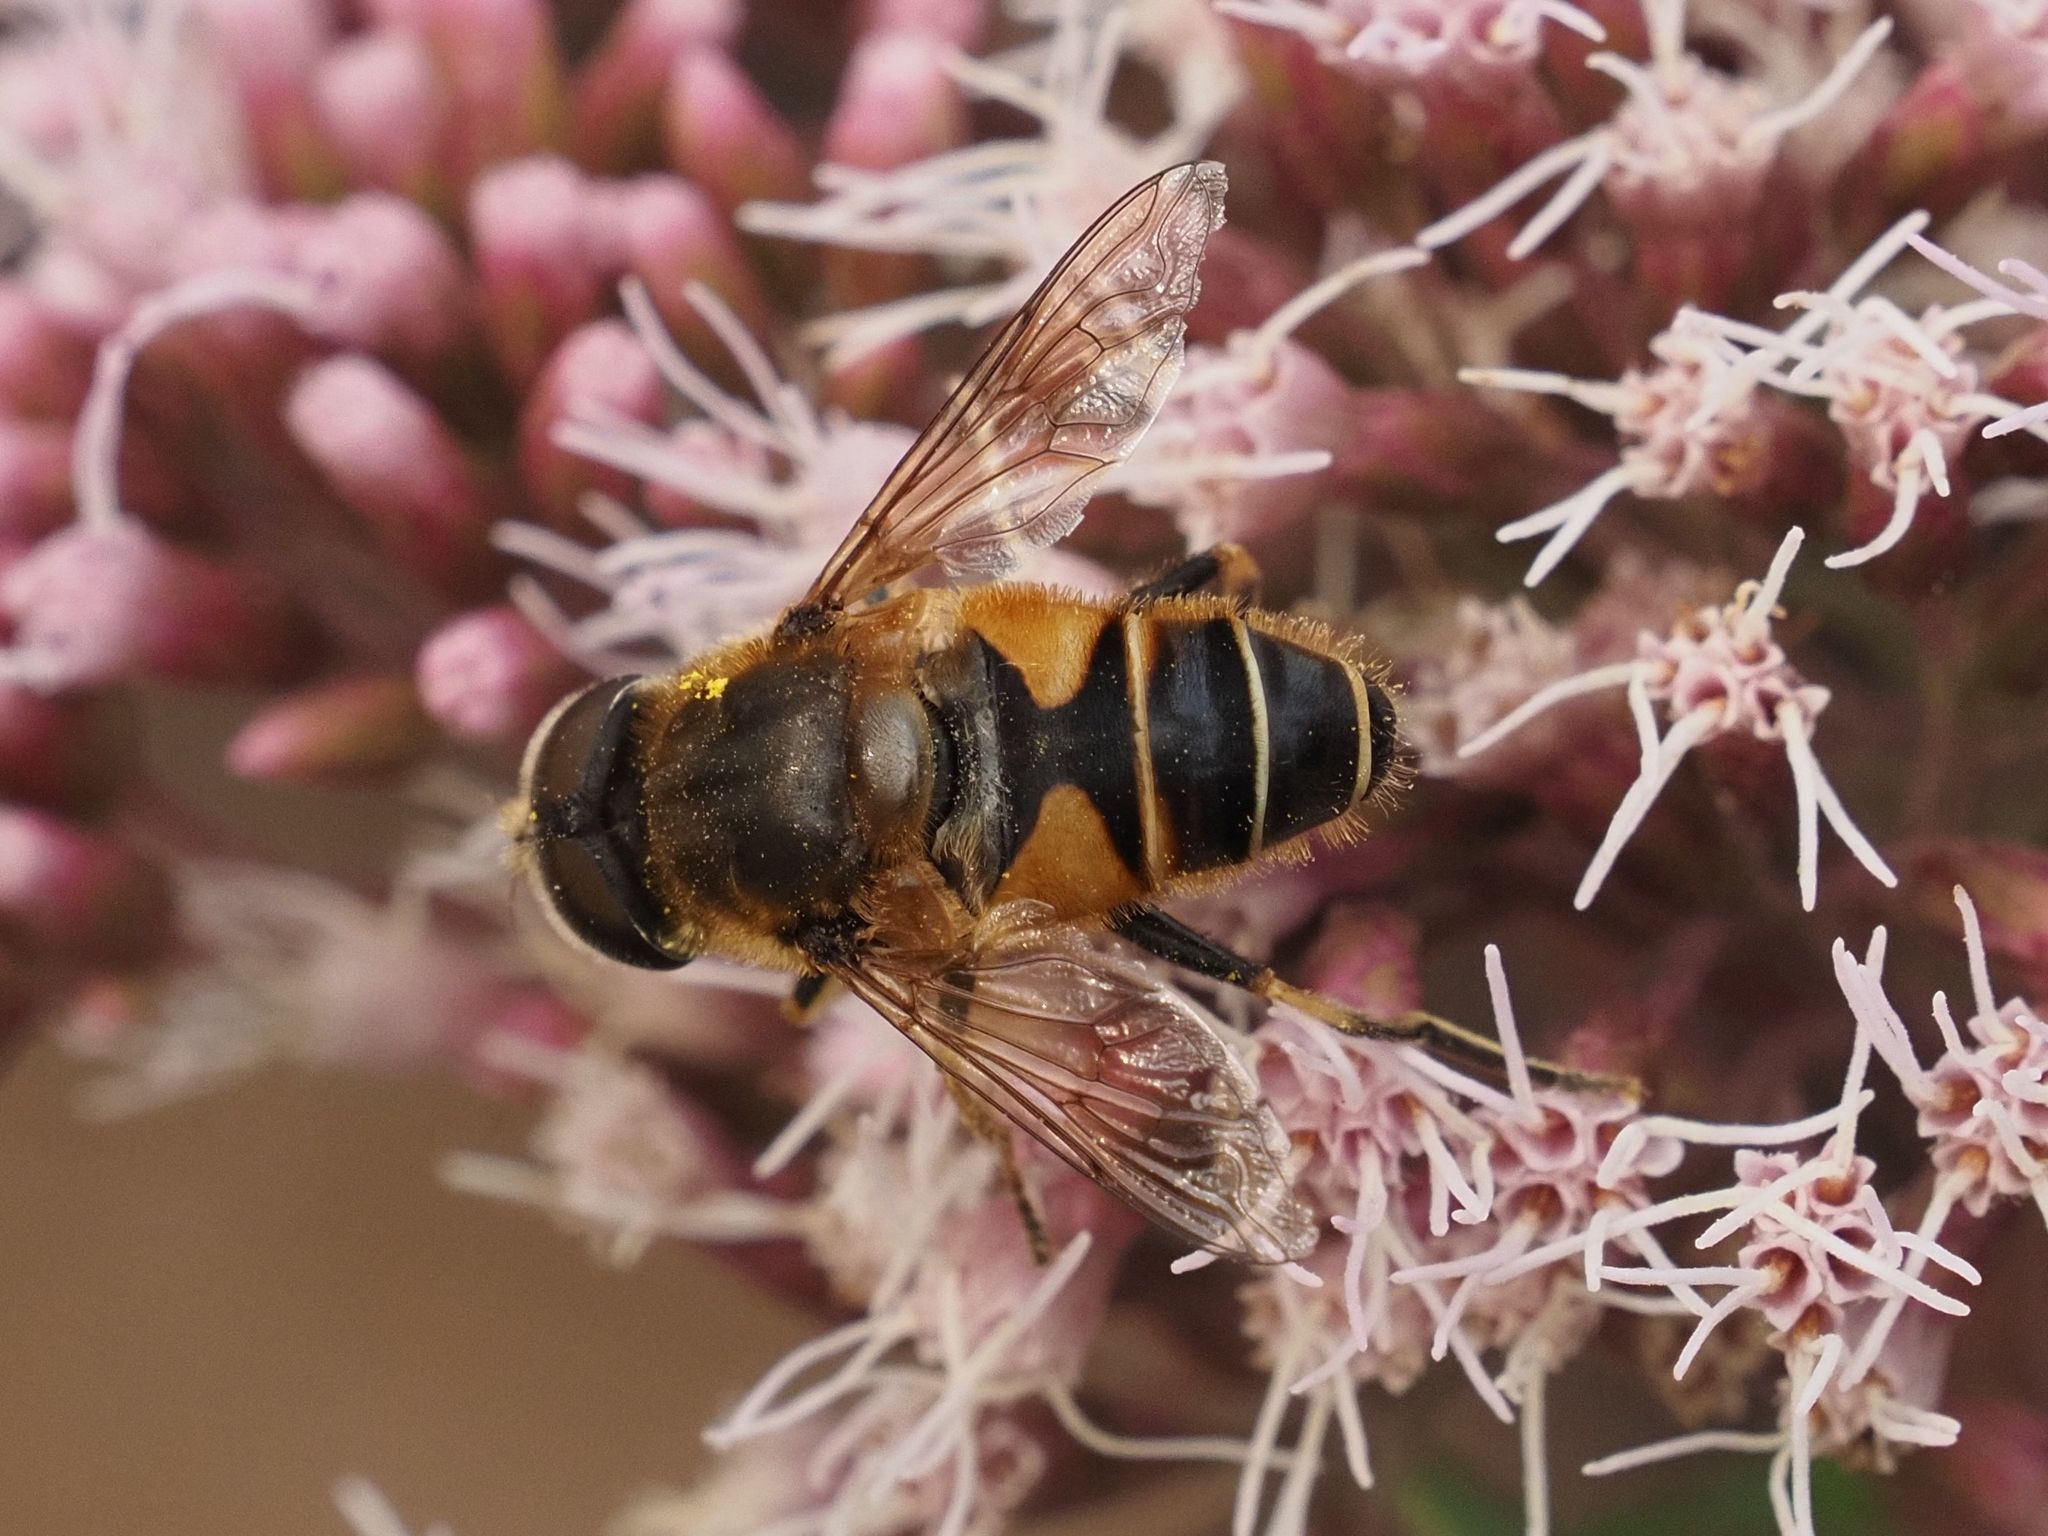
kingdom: Animalia
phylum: Arthropoda
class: Insecta
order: Diptera
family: Syrphidae
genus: Eristalis
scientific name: Eristalis nemorum
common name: Orange-spined drone fly
